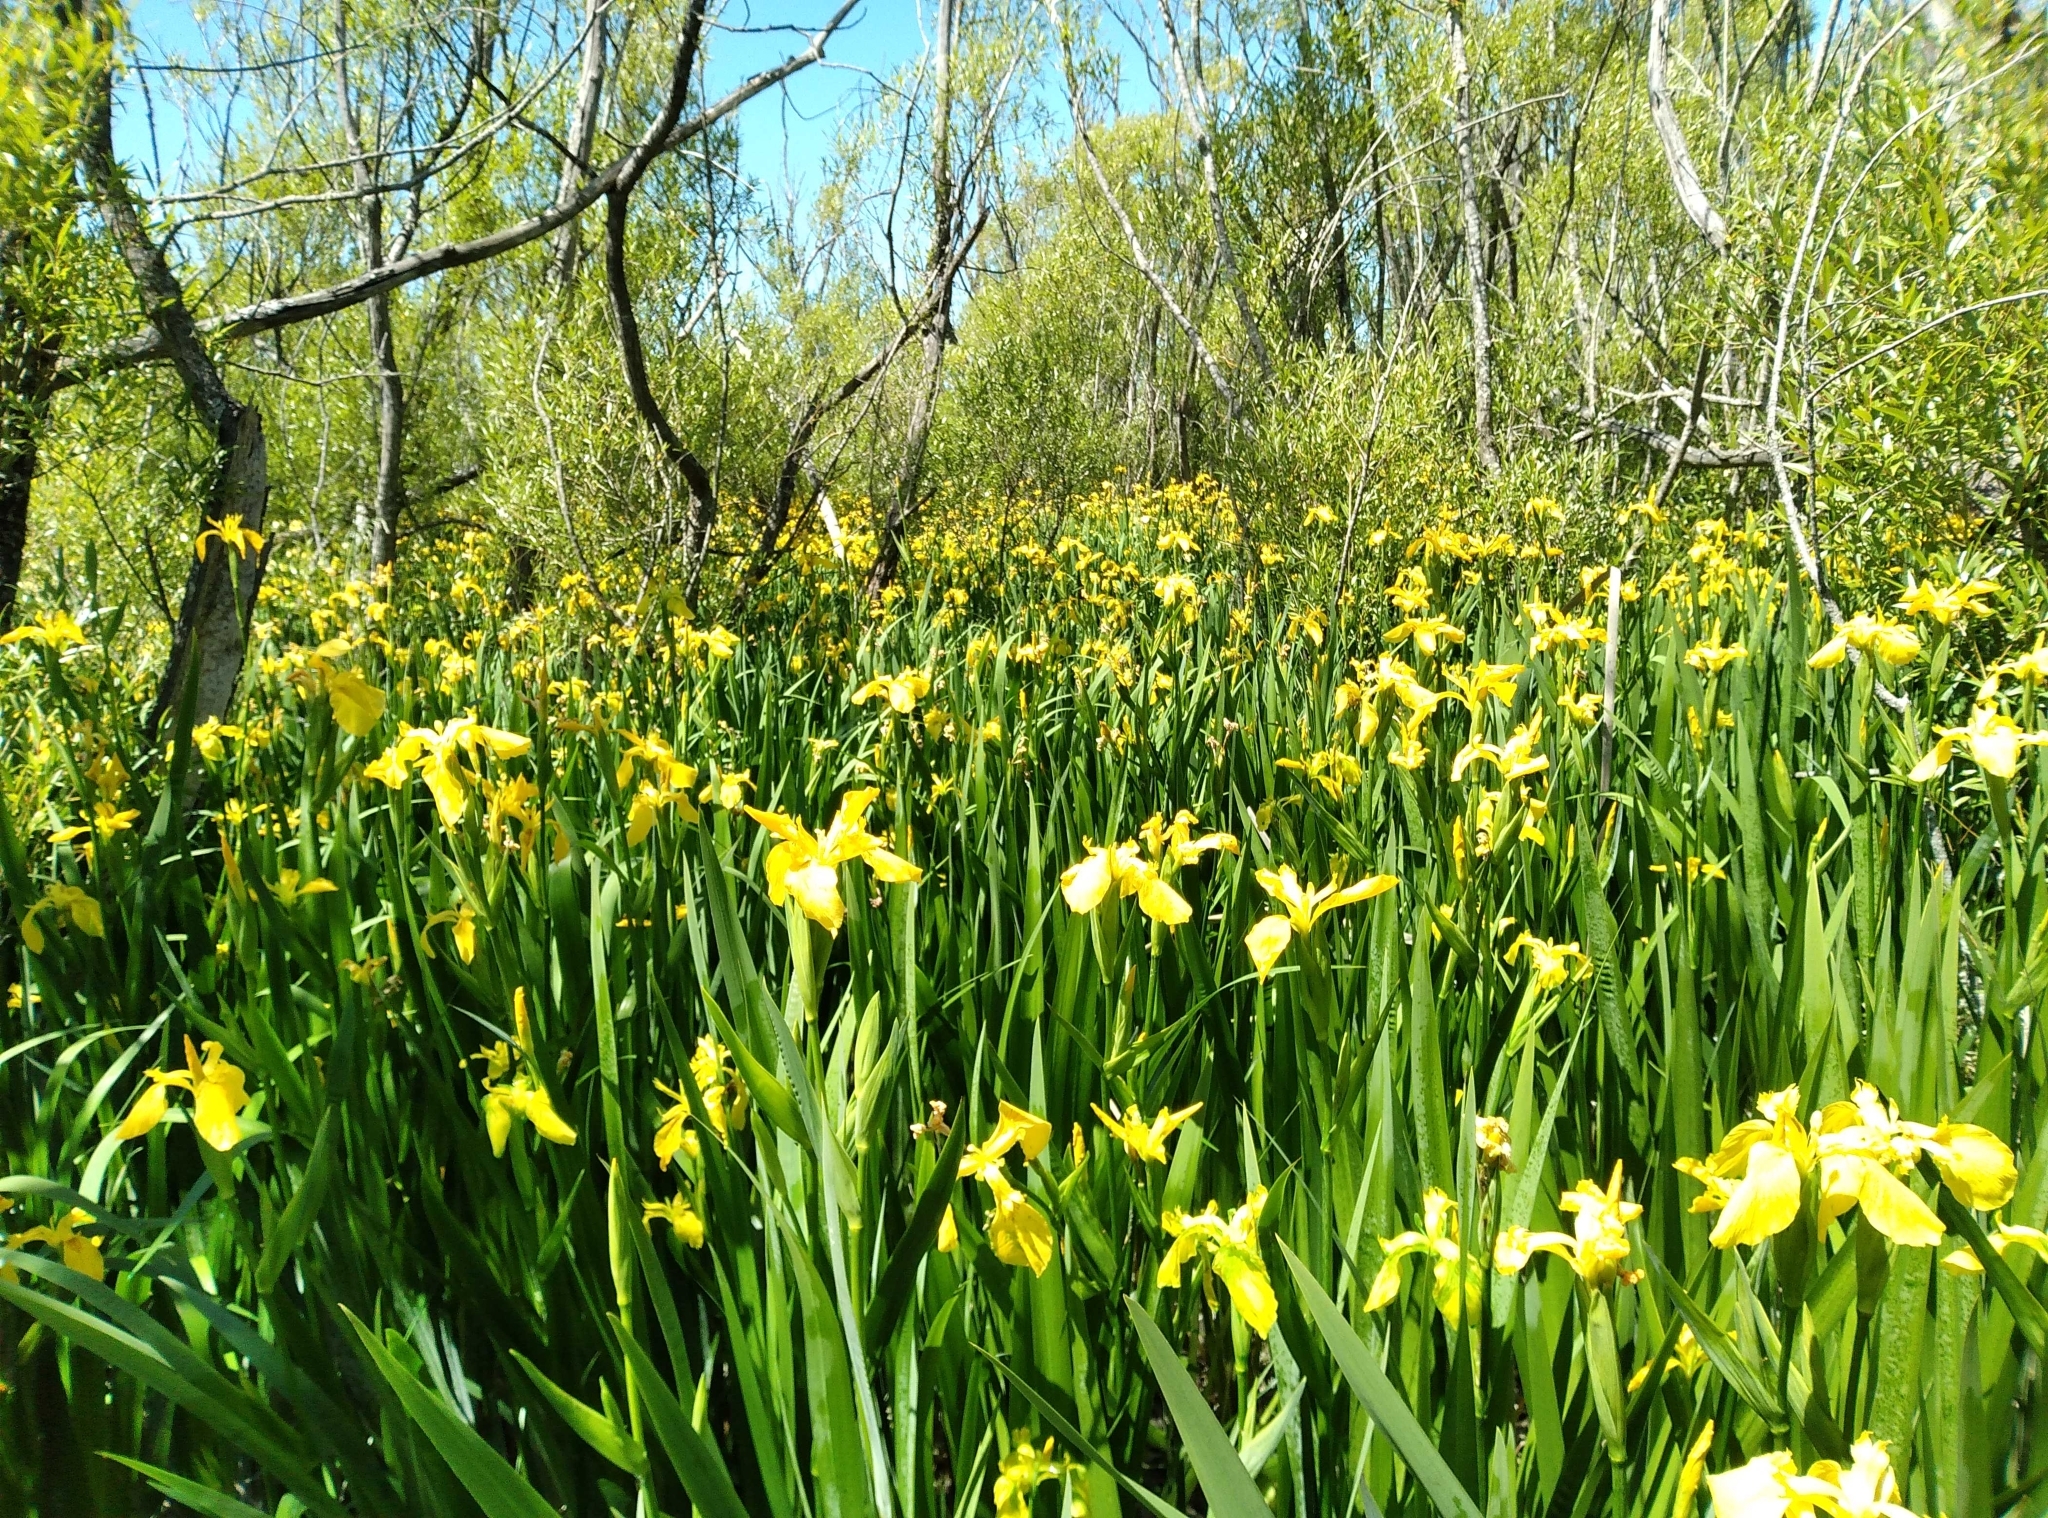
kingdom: Plantae
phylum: Tracheophyta
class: Liliopsida
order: Asparagales
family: Iridaceae
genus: Iris
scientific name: Iris pseudacorus
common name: Yellow flag
